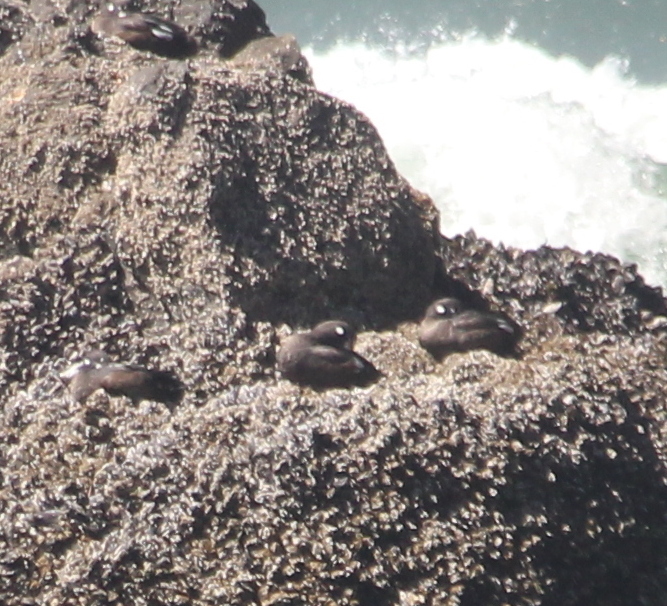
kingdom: Animalia
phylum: Chordata
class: Aves
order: Anseriformes
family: Anatidae
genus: Histrionicus
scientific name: Histrionicus histrionicus
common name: Harlequin duck
